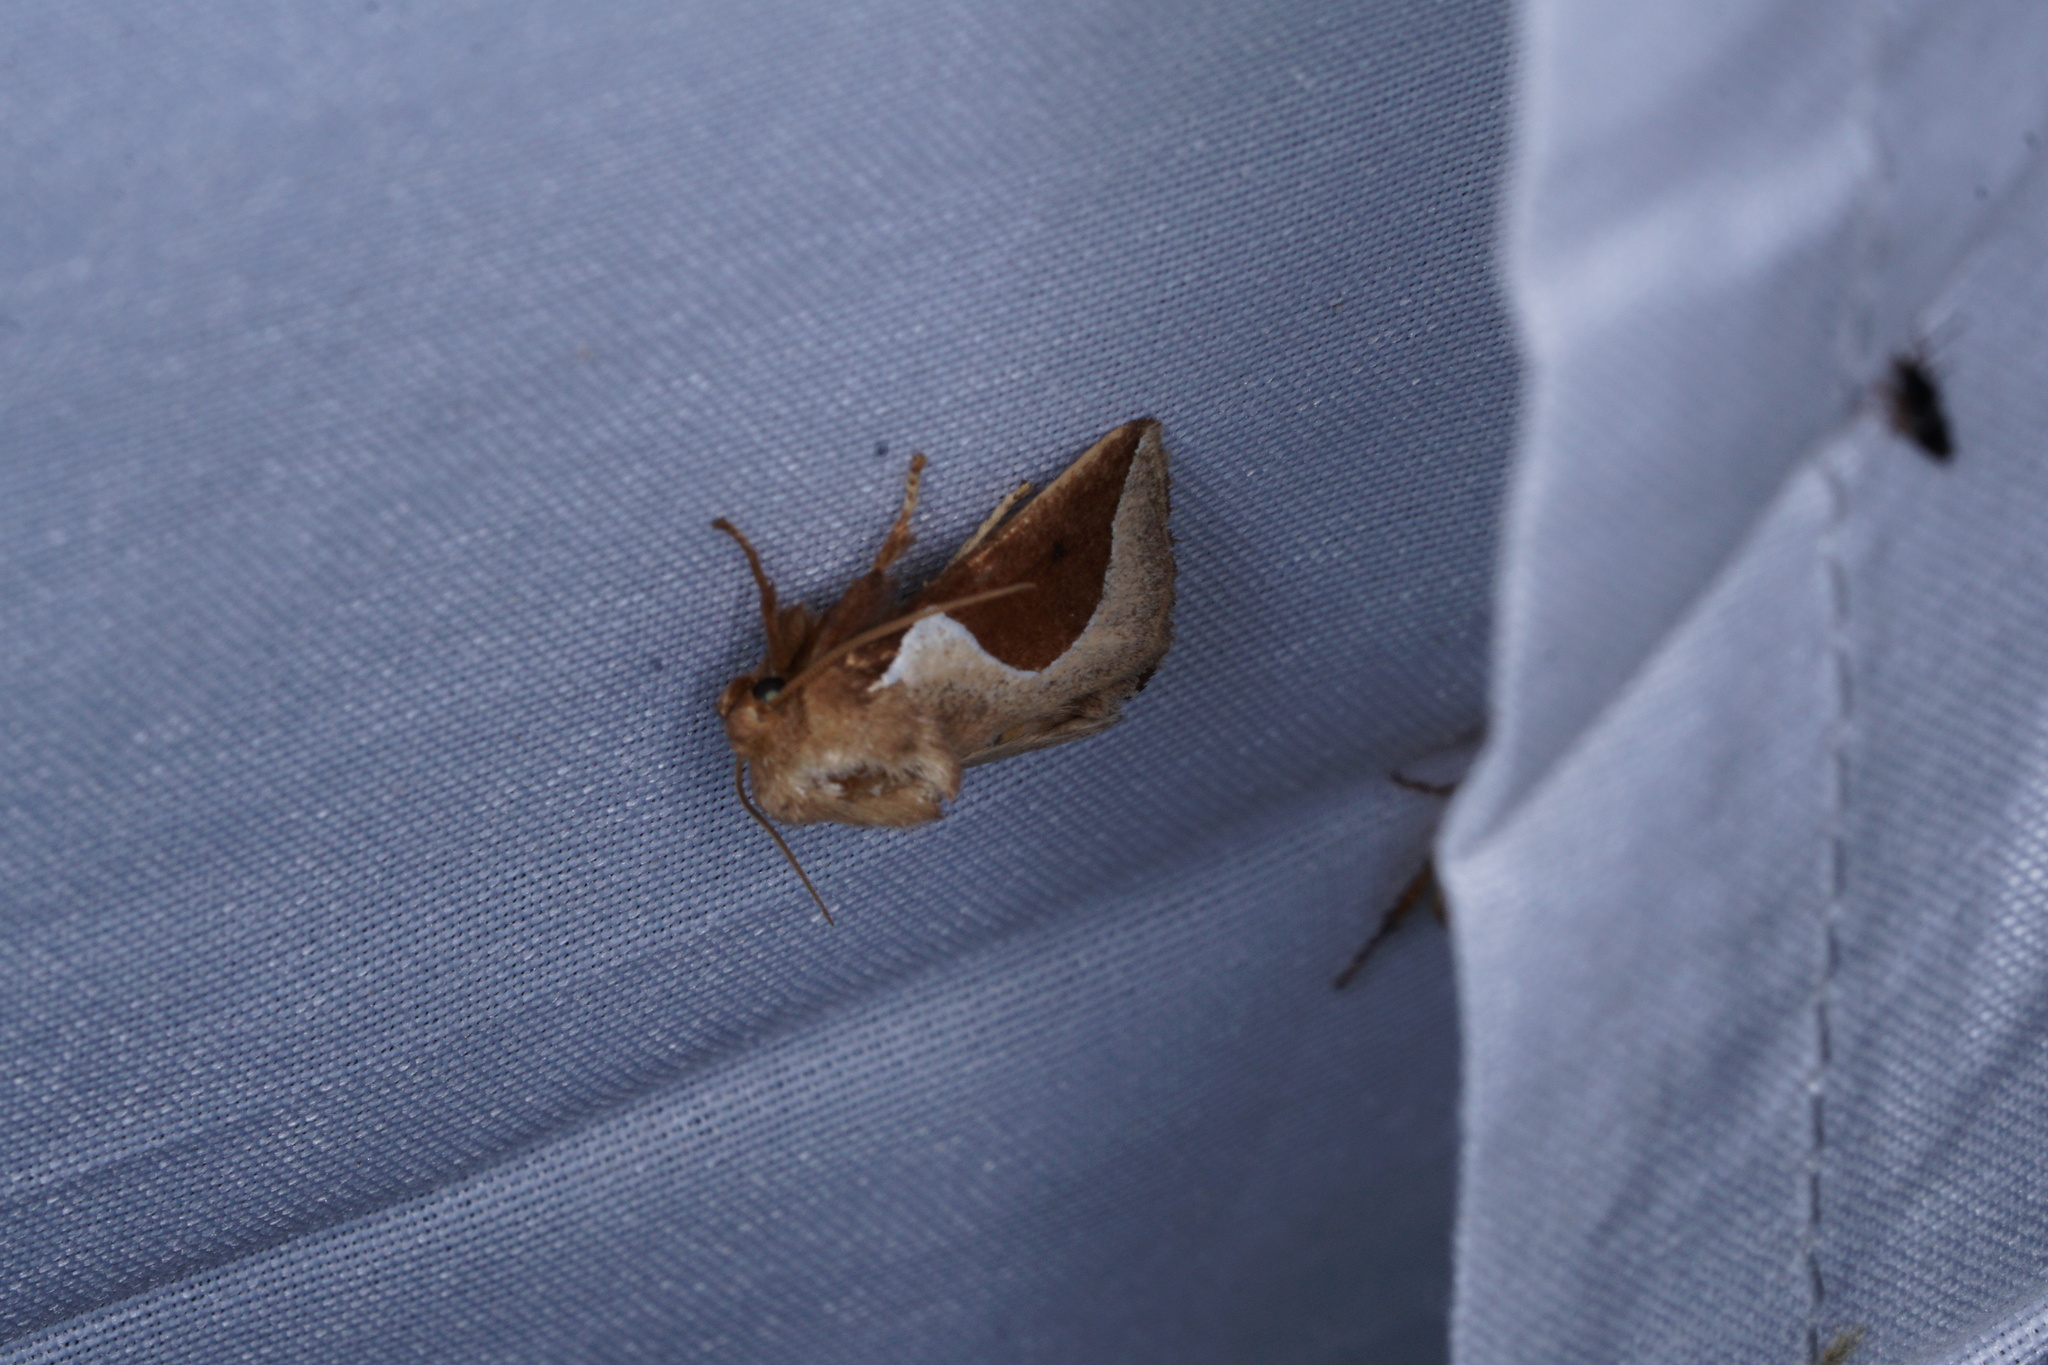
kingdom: Animalia
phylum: Arthropoda
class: Insecta
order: Lepidoptera
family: Limacodidae
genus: Prolimacodes
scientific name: Prolimacodes badia
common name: Skiff moth
